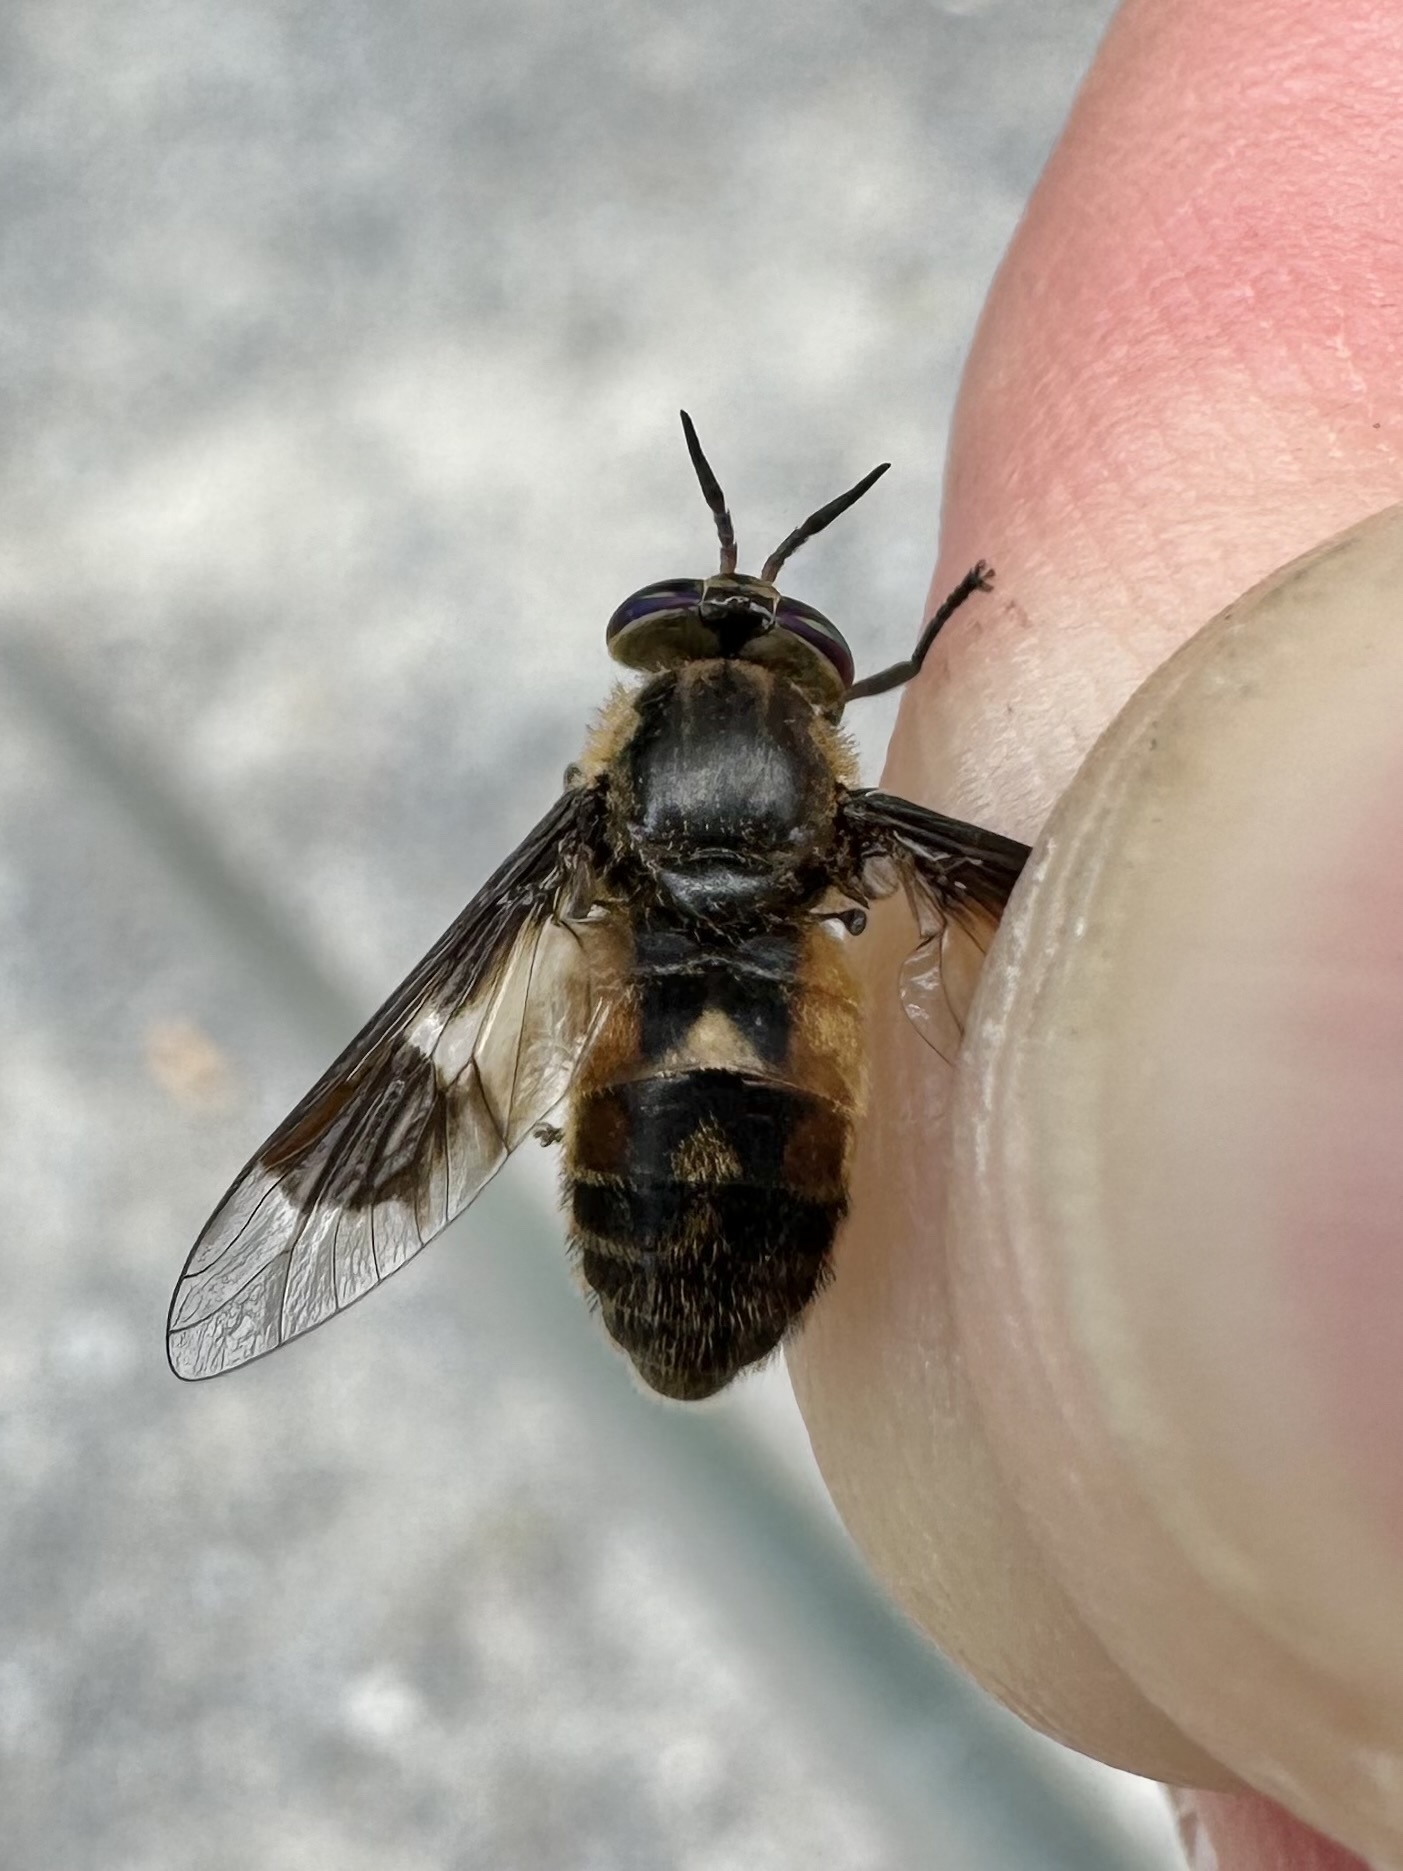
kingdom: Animalia
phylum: Arthropoda
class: Insecta
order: Diptera
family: Tabanidae
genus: Chrysops
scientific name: Chrysops excitans
